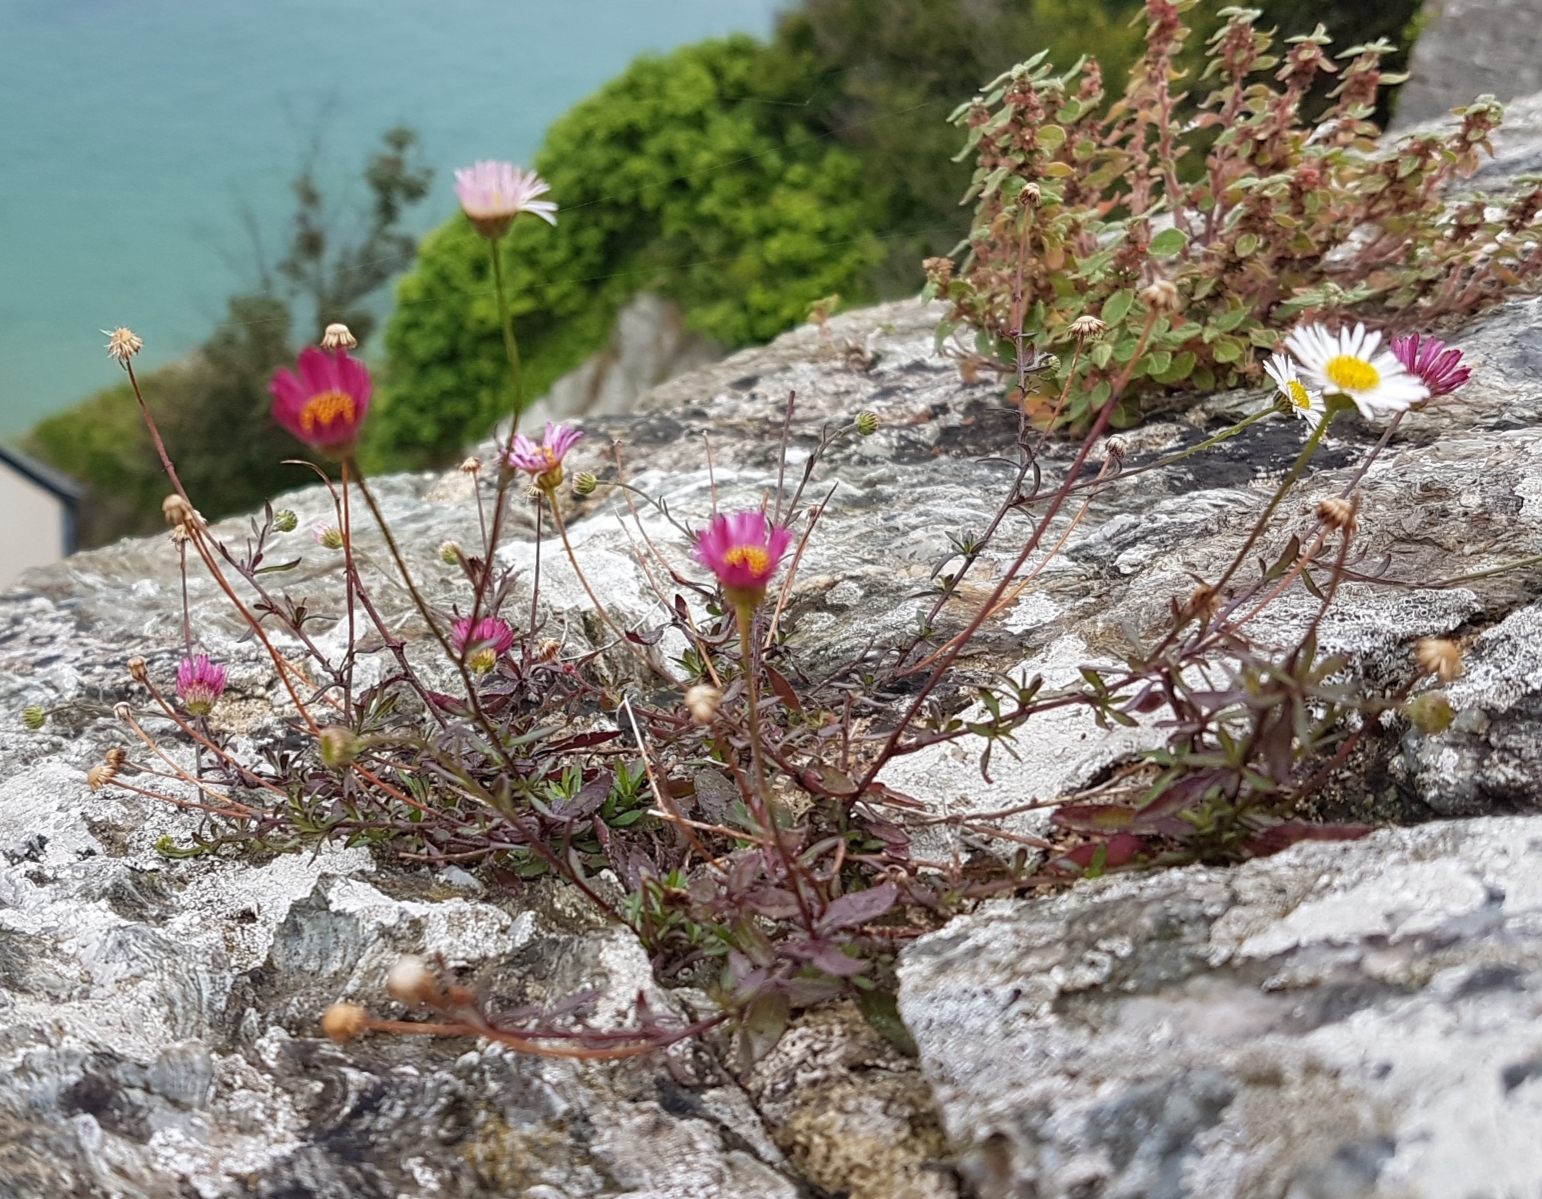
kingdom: Plantae
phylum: Tracheophyta
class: Magnoliopsida
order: Asterales
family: Asteraceae
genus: Erigeron
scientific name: Erigeron karvinskianus
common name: Mexican fleabane
